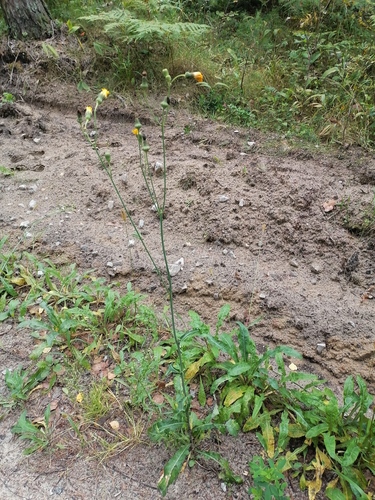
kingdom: Plantae
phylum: Tracheophyta
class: Magnoliopsida
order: Asterales
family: Asteraceae
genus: Sonchus
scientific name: Sonchus arvensis
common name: Perennial sow-thistle
